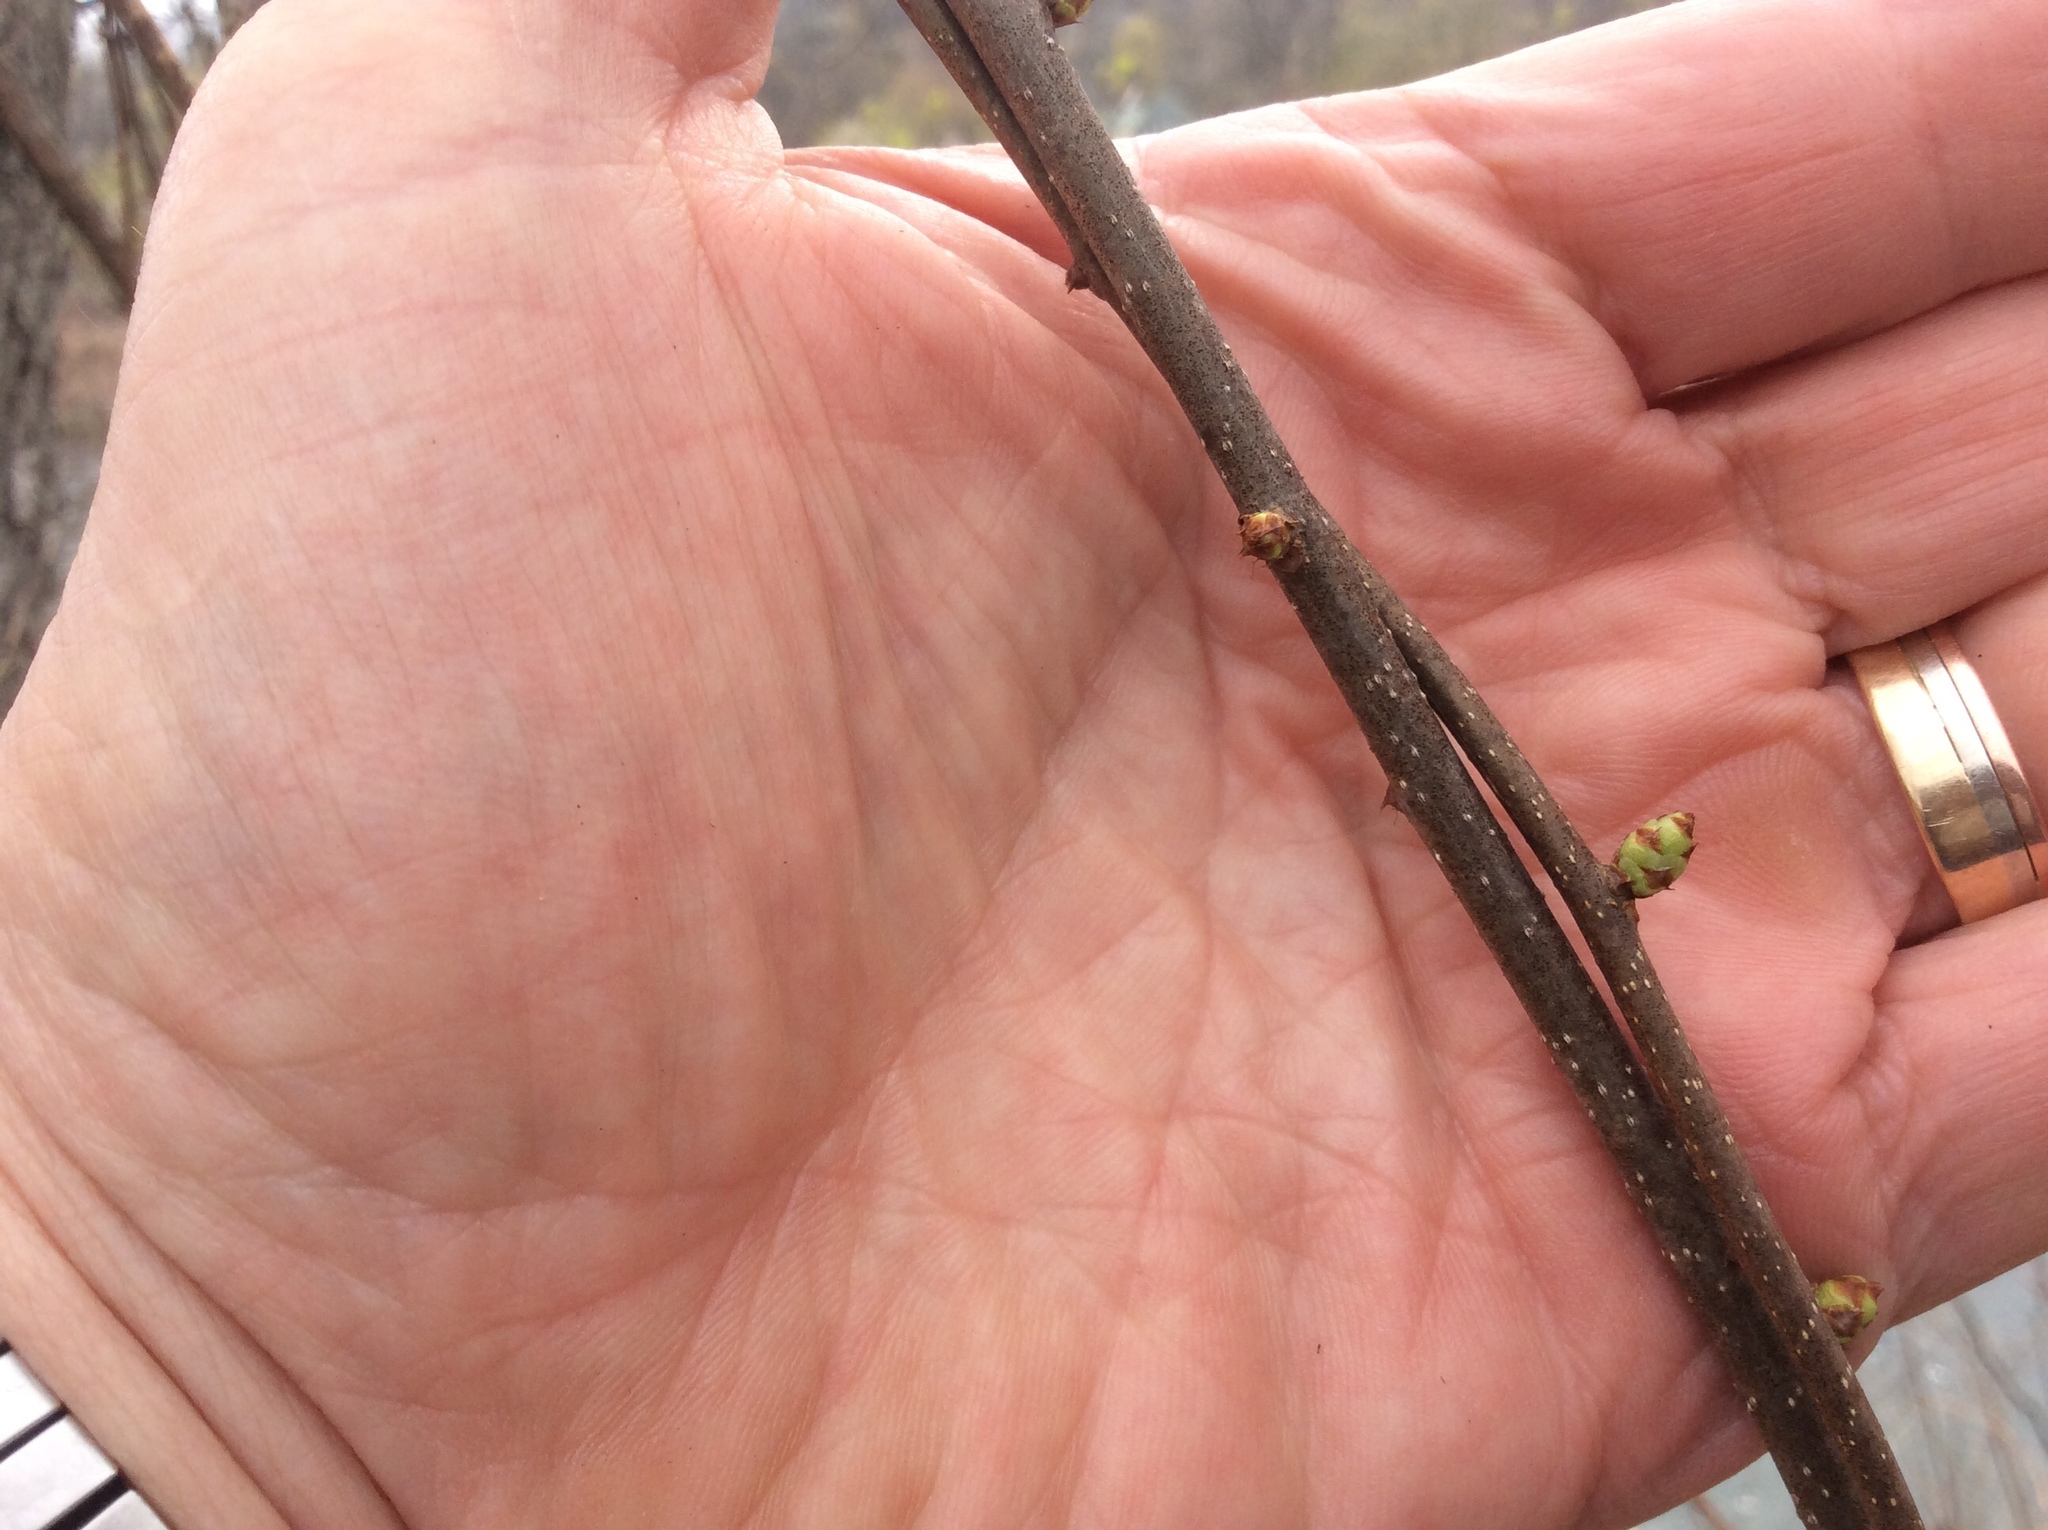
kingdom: Plantae
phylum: Tracheophyta
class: Magnoliopsida
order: Celastrales
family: Celastraceae
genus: Celastrus
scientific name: Celastrus orbiculatus
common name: Oriental bittersweet
